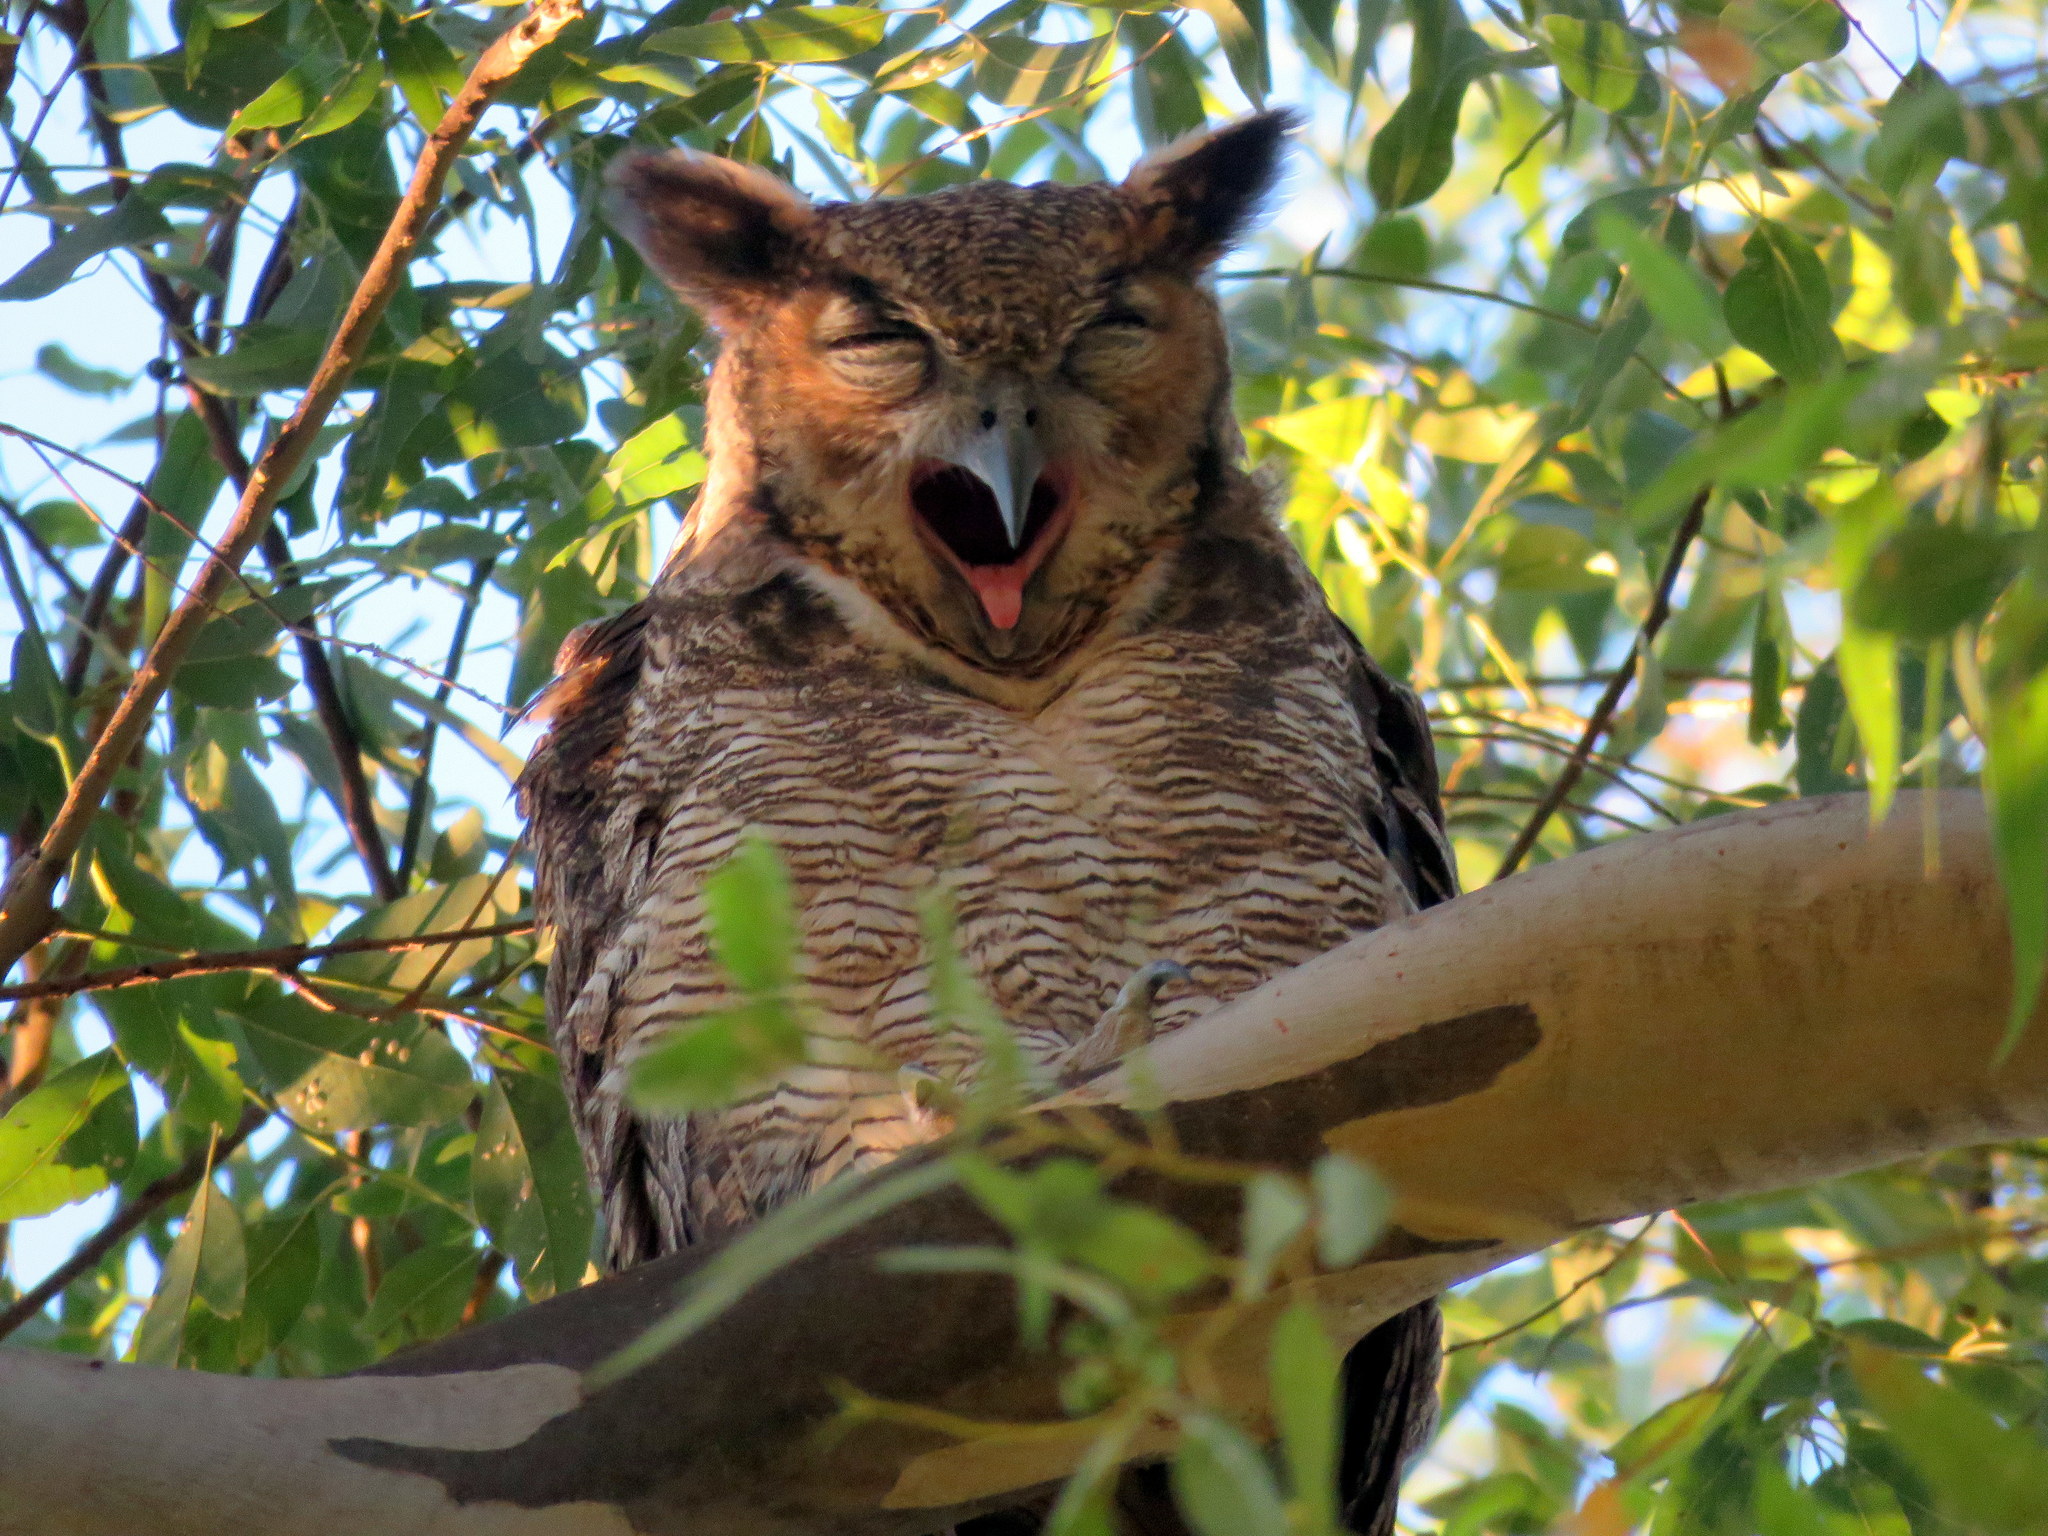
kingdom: Animalia
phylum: Chordata
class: Aves
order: Strigiformes
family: Strigidae
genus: Bubo
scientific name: Bubo virginianus
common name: Great horned owl
